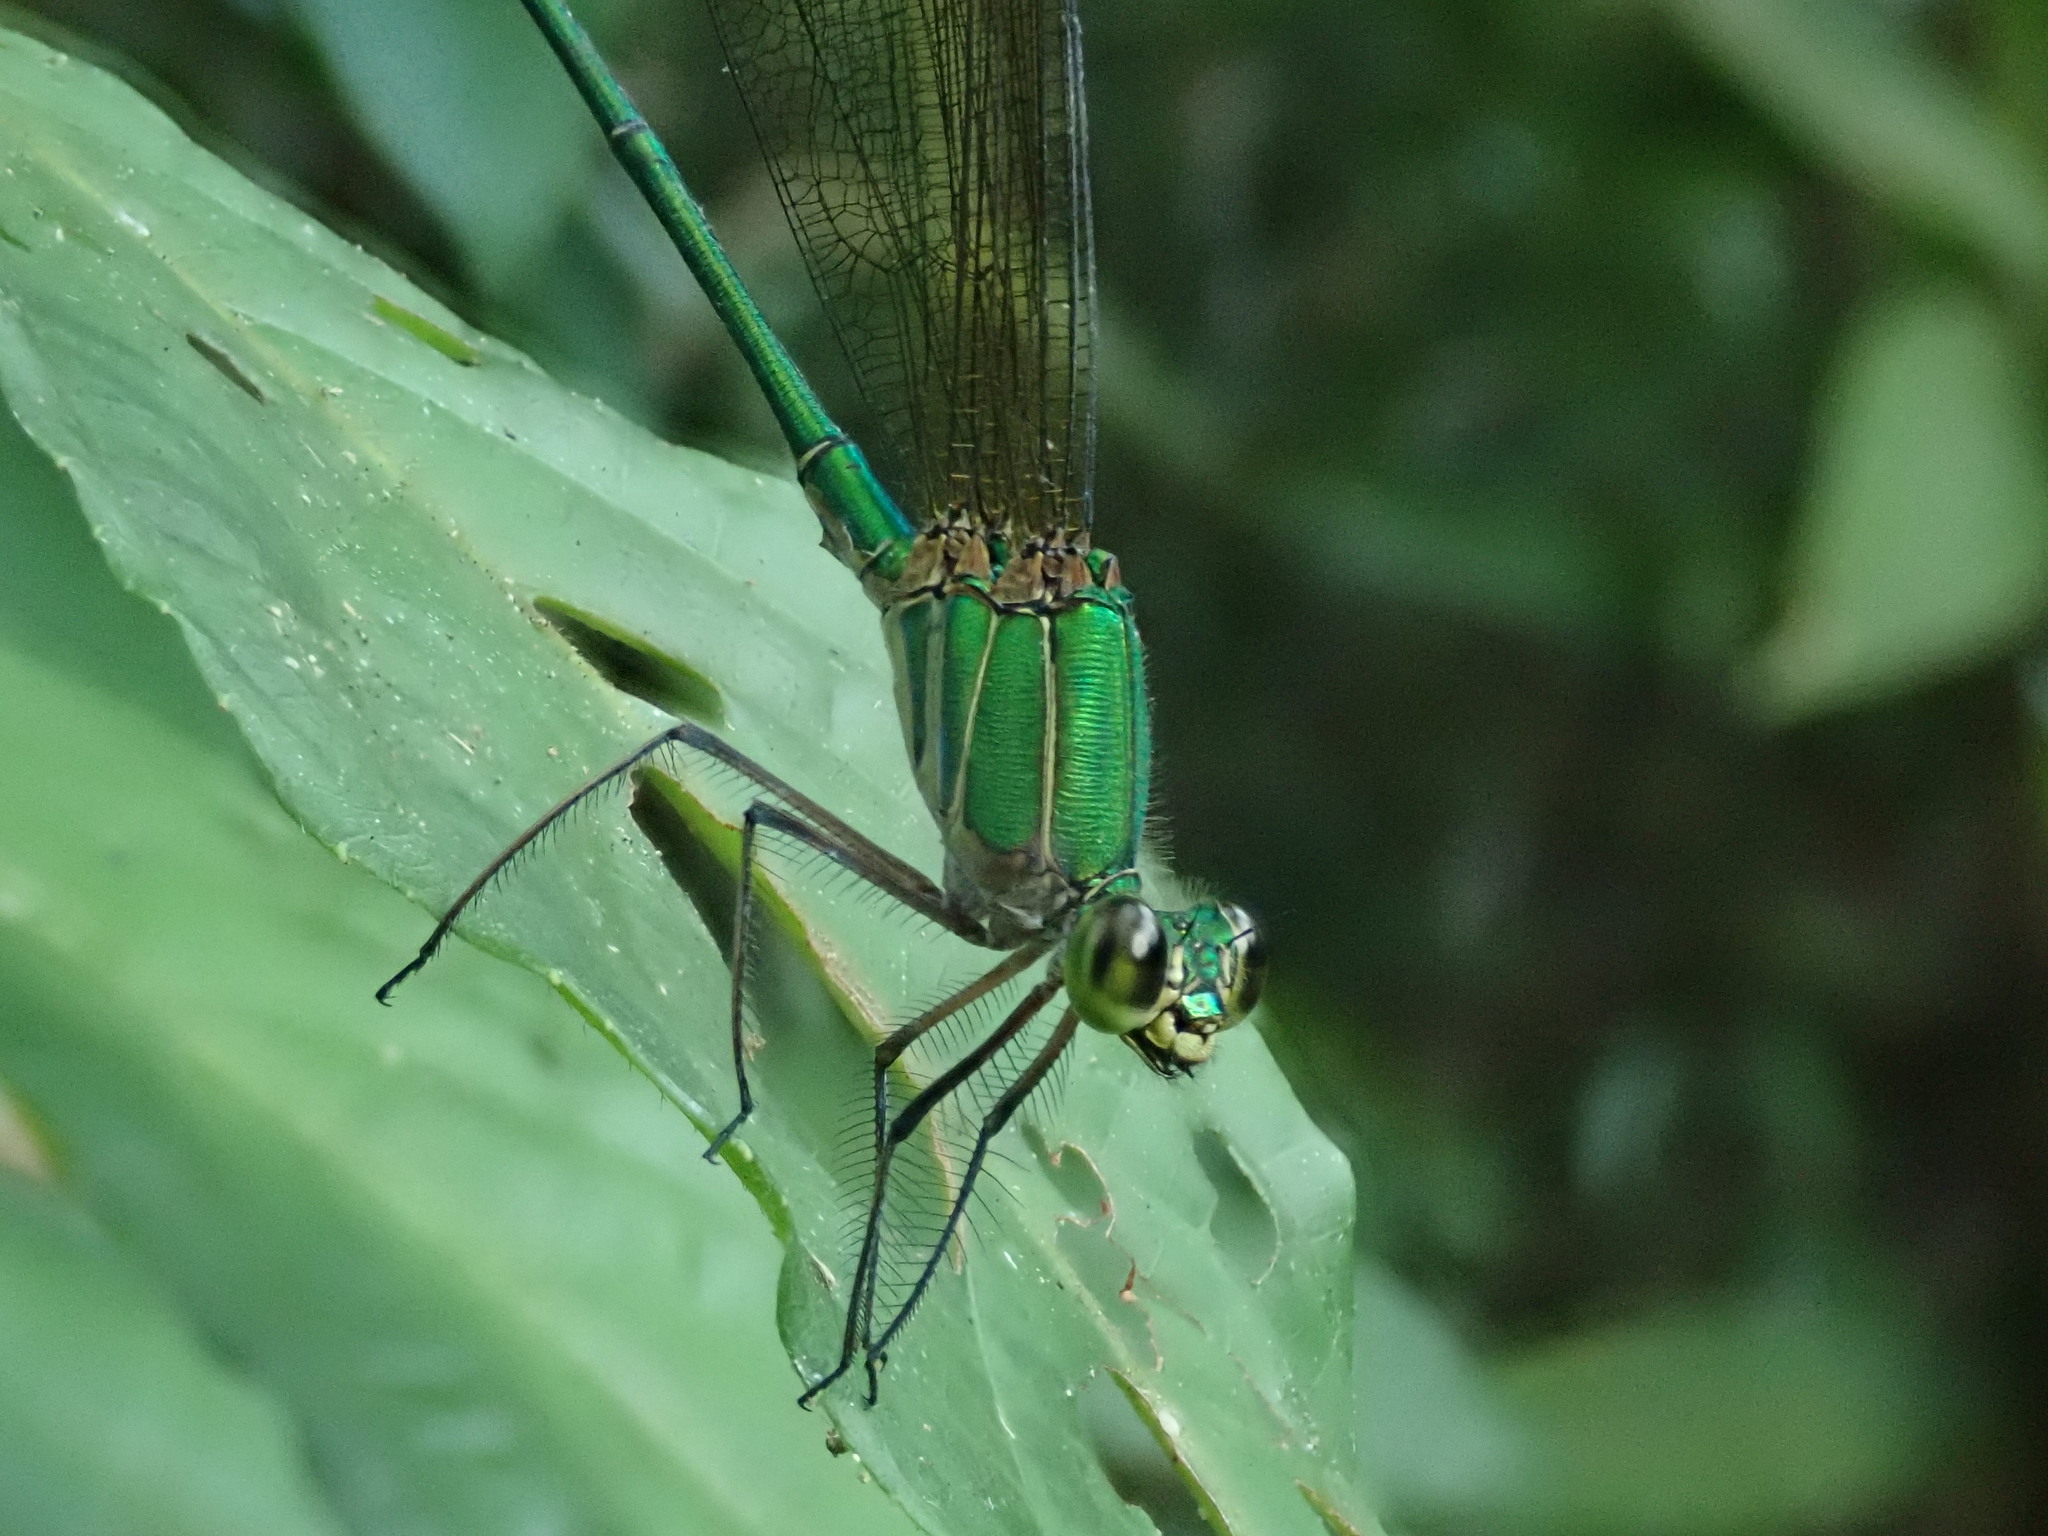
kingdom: Animalia
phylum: Arthropoda
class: Insecta
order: Odonata
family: Calopterygidae
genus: Vestalis
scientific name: Vestalis gracilis
